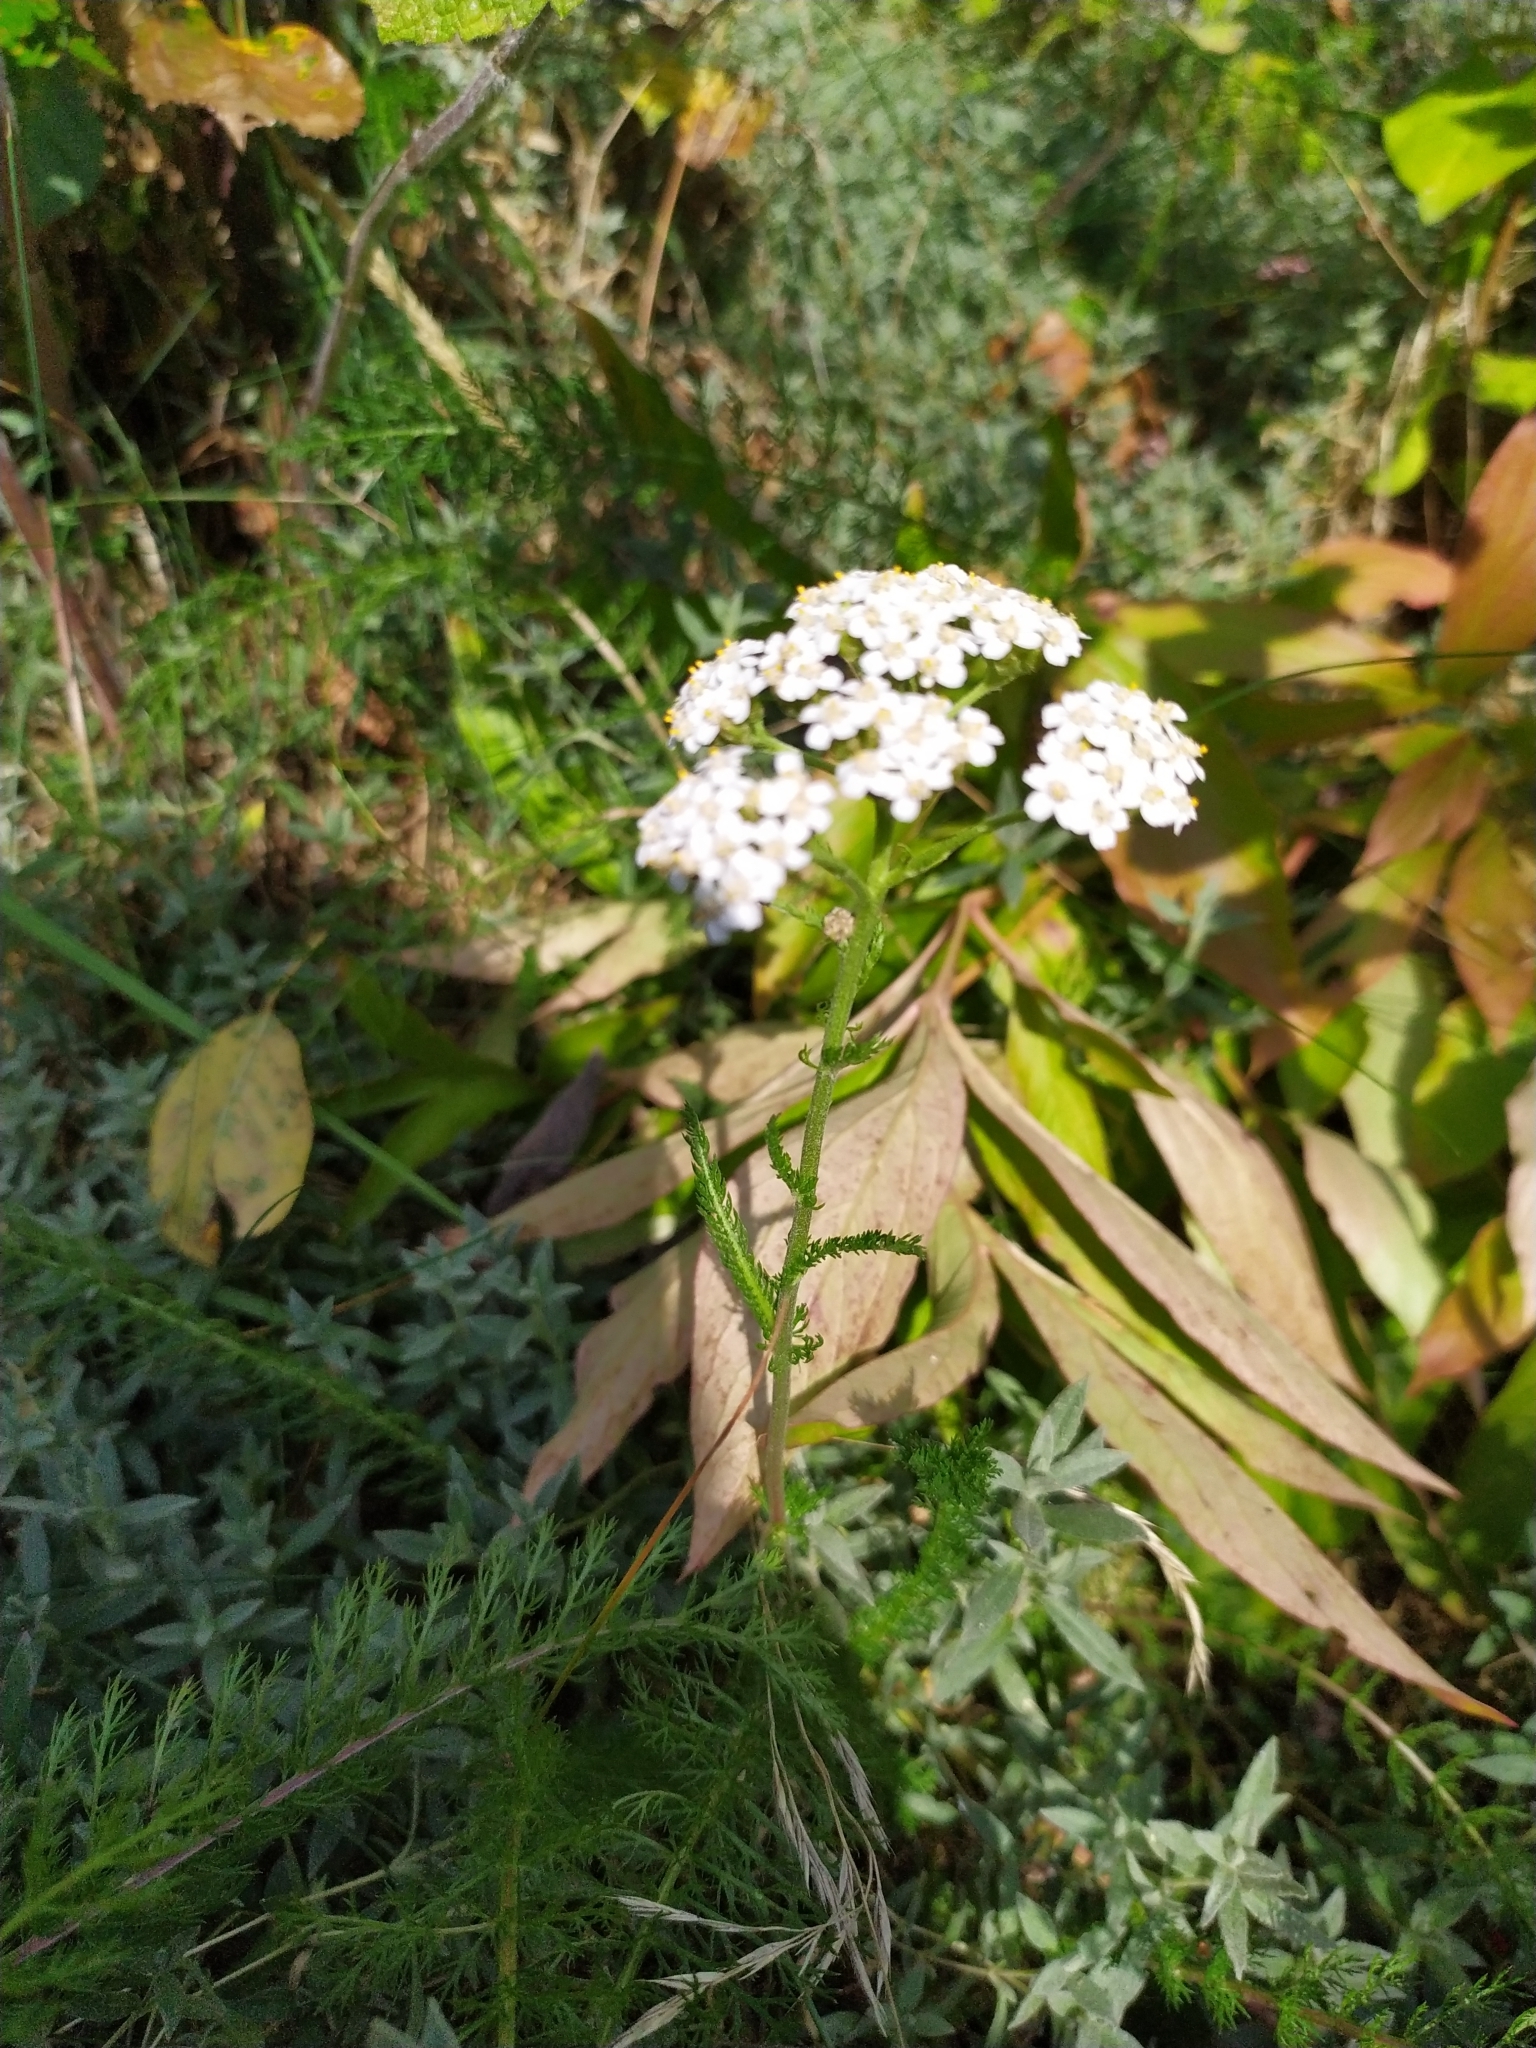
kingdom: Plantae
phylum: Tracheophyta
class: Magnoliopsida
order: Asterales
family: Asteraceae
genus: Achillea
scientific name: Achillea millefolium
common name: Yarrow
